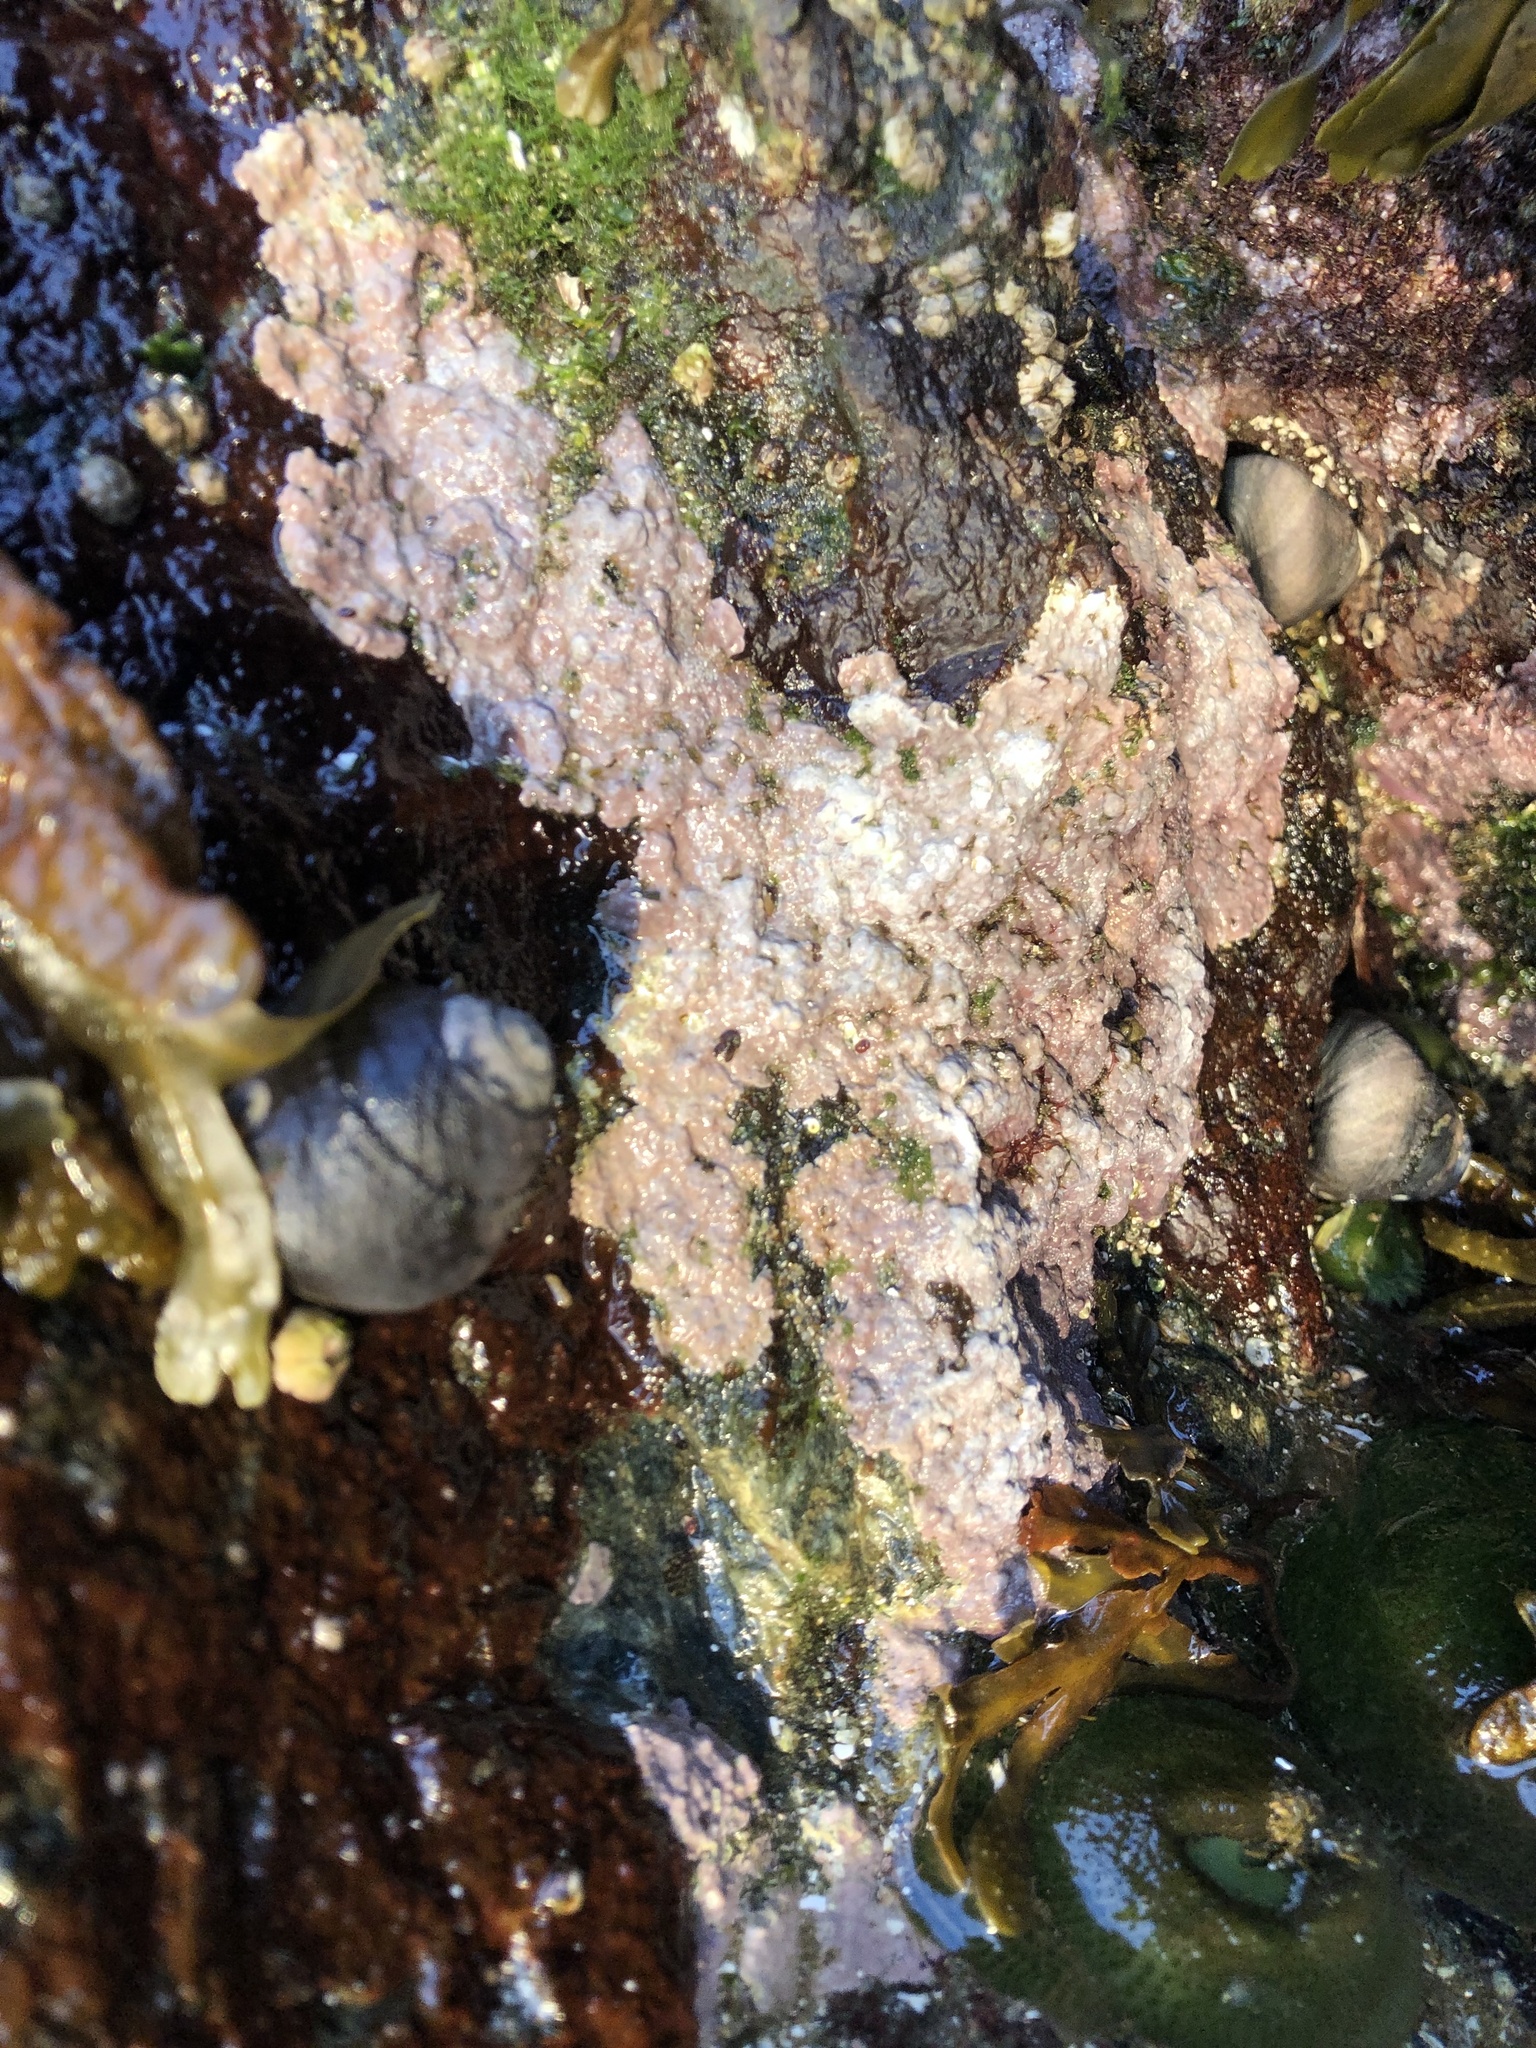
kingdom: Plantae
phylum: Rhodophyta
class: Florideophyceae
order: Corallinales
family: Corallinaceae
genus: Chamberlainium
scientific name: Chamberlainium tumidum
